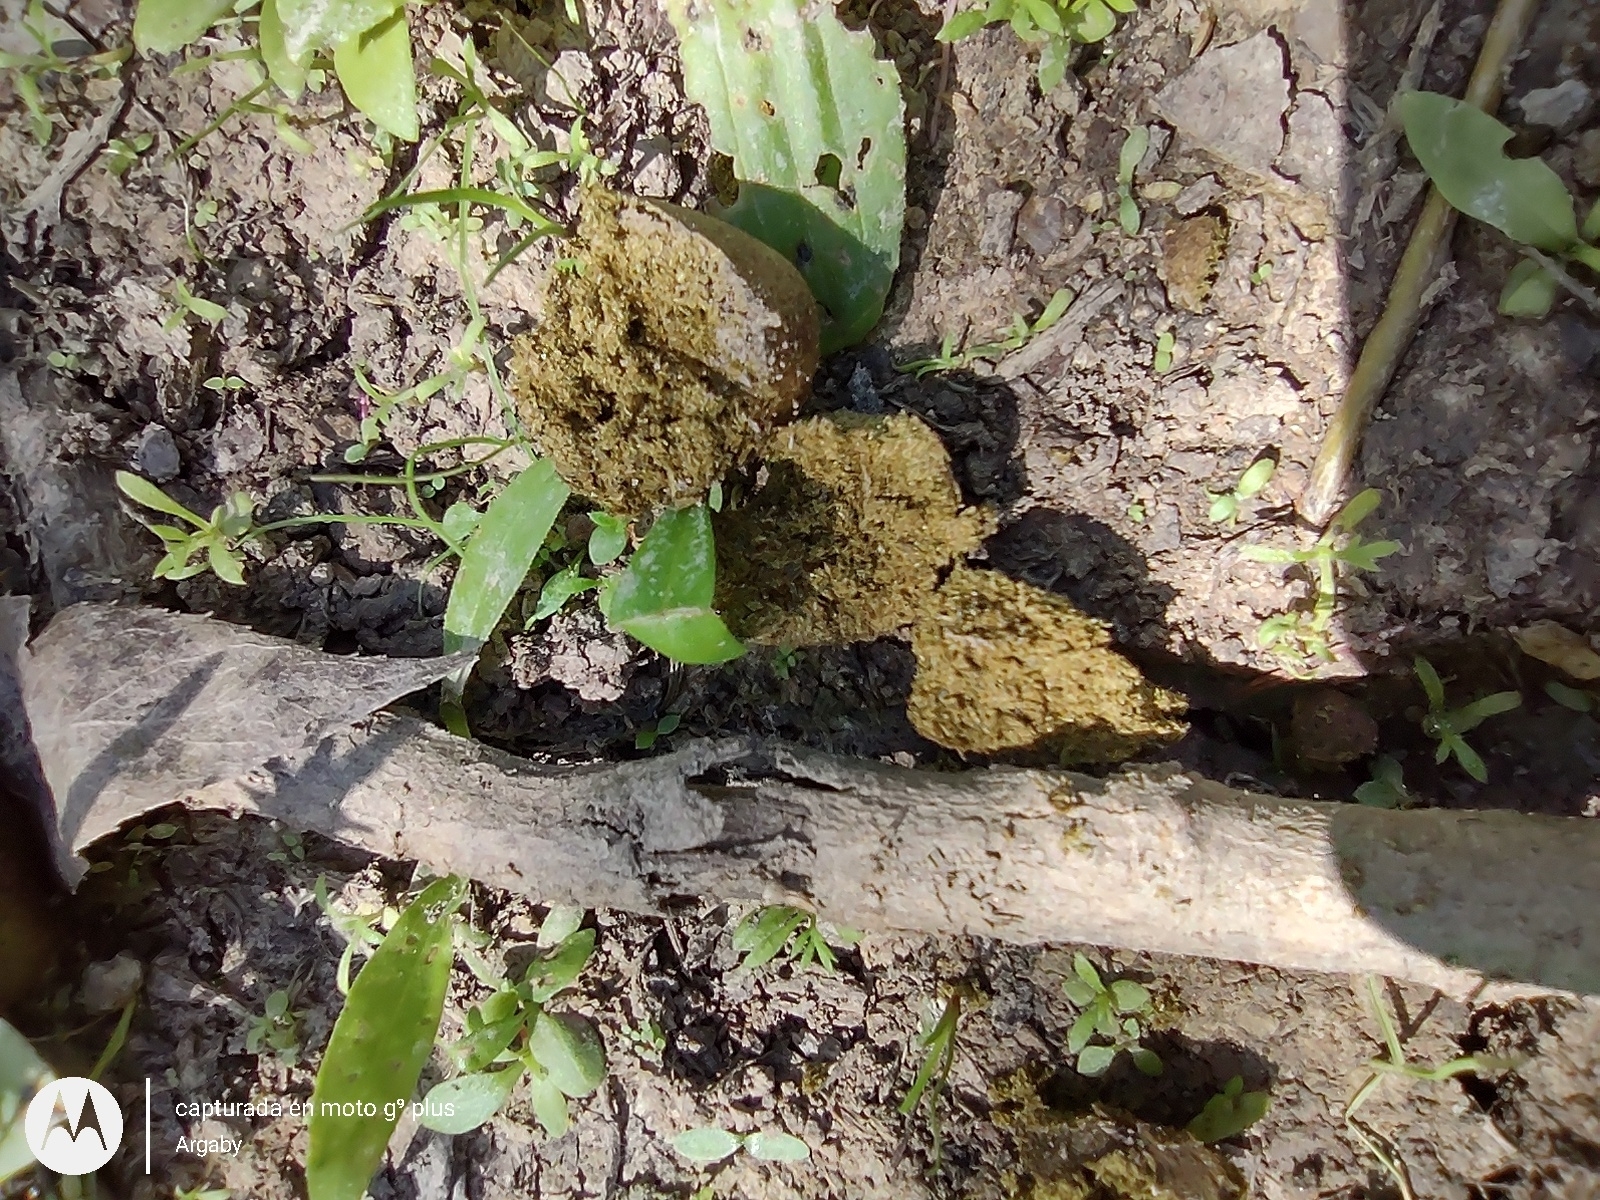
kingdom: Animalia
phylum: Chordata
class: Mammalia
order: Rodentia
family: Caviidae
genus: Hydrochoerus
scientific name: Hydrochoerus hydrochaeris
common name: Capybara
